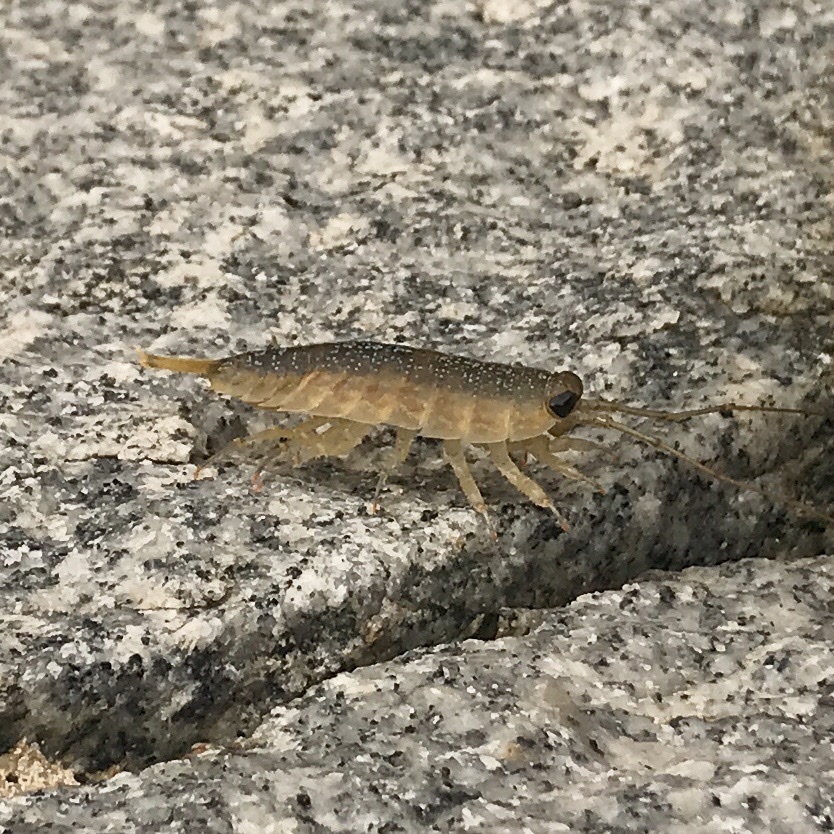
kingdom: Animalia
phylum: Arthropoda
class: Malacostraca
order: Isopoda
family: Ligiidae
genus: Ligia
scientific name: Ligia exotica
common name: Wharf roach
